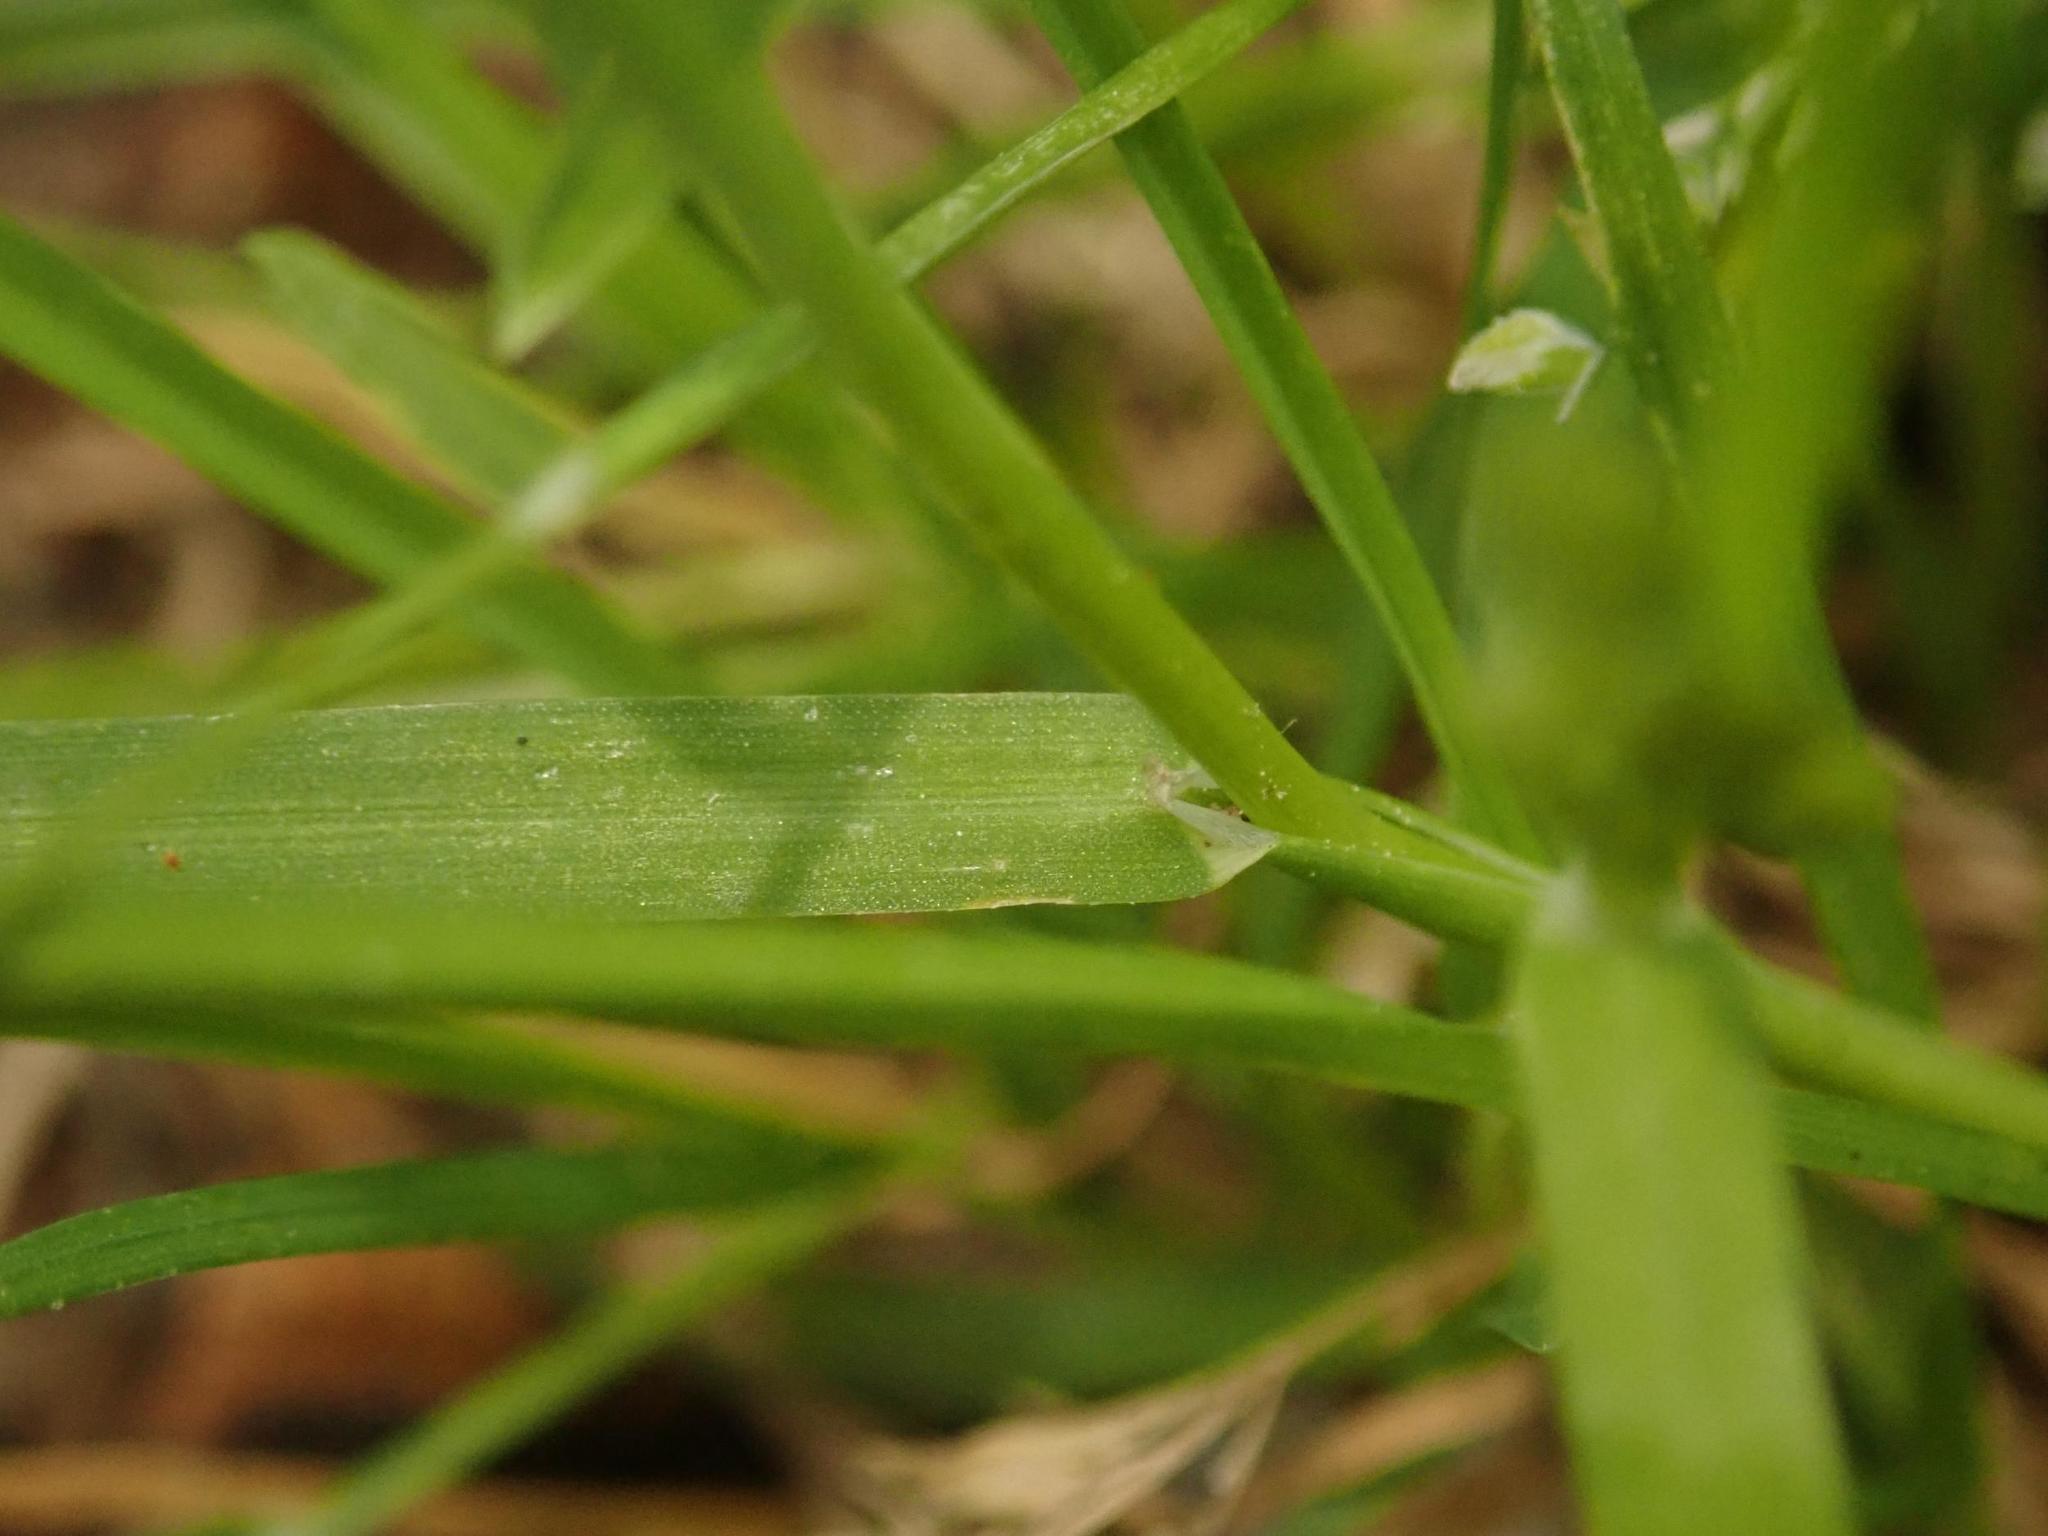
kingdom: Plantae
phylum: Tracheophyta
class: Liliopsida
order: Poales
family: Poaceae
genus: Poa
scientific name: Poa annua
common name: Annual bluegrass
